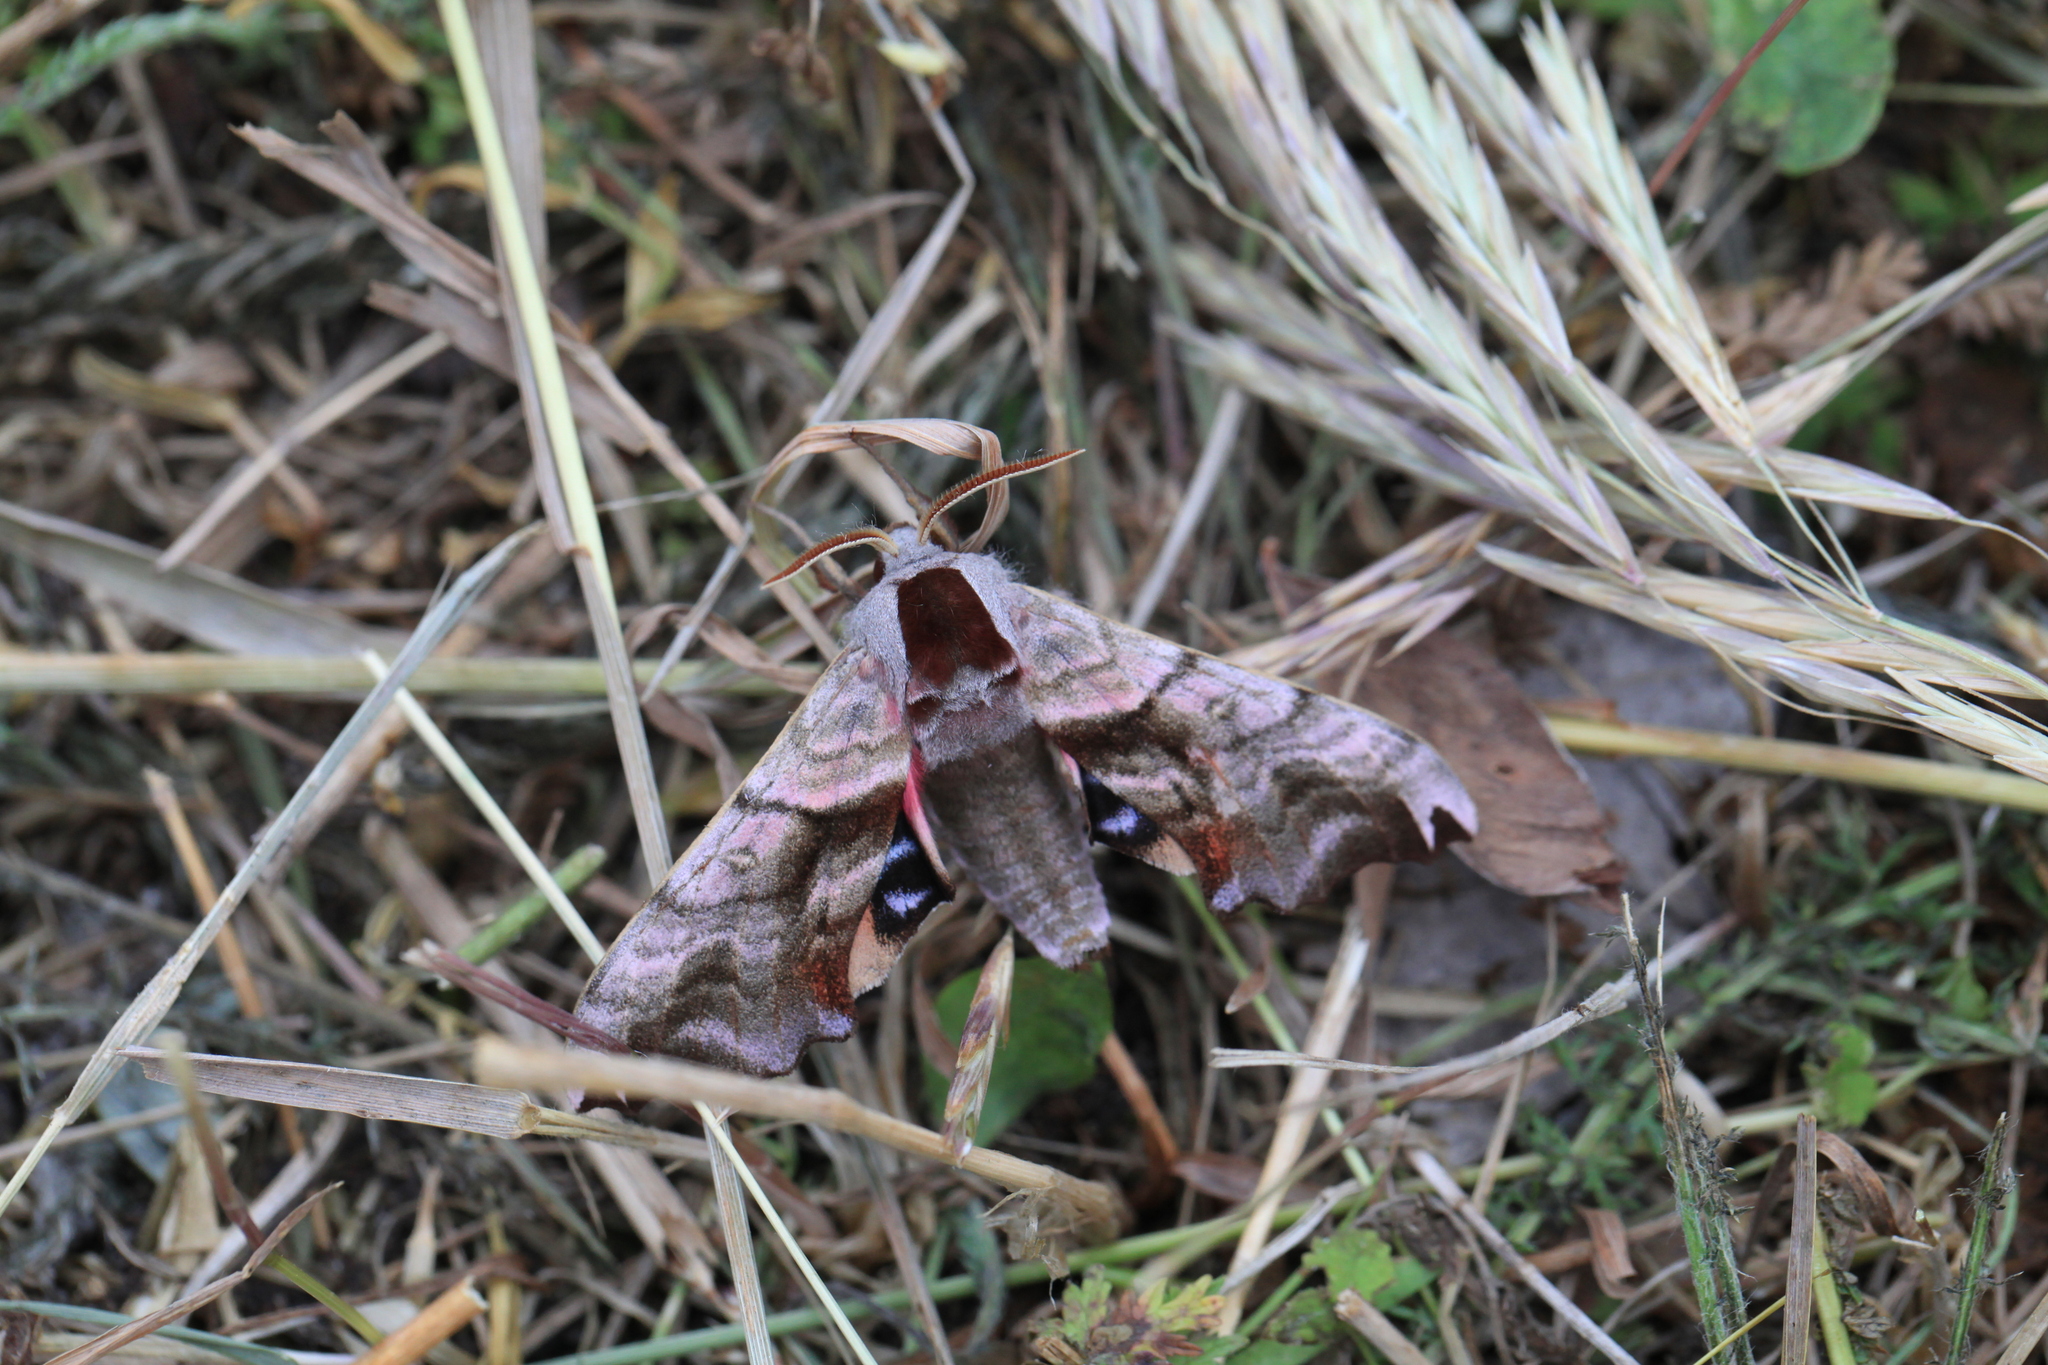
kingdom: Animalia
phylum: Arthropoda
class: Insecta
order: Lepidoptera
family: Sphingidae
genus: Smerinthus
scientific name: Smerinthus caecus
